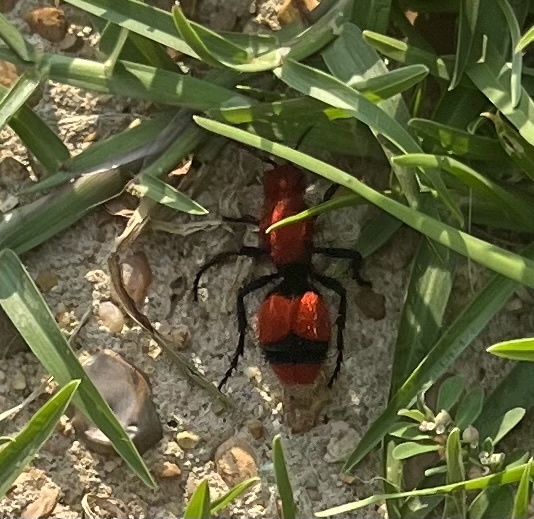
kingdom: Animalia
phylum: Arthropoda
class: Insecta
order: Hymenoptera
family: Mutillidae
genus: Dasymutilla
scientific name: Dasymutilla occidentalis
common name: Common eastern velvet ant
